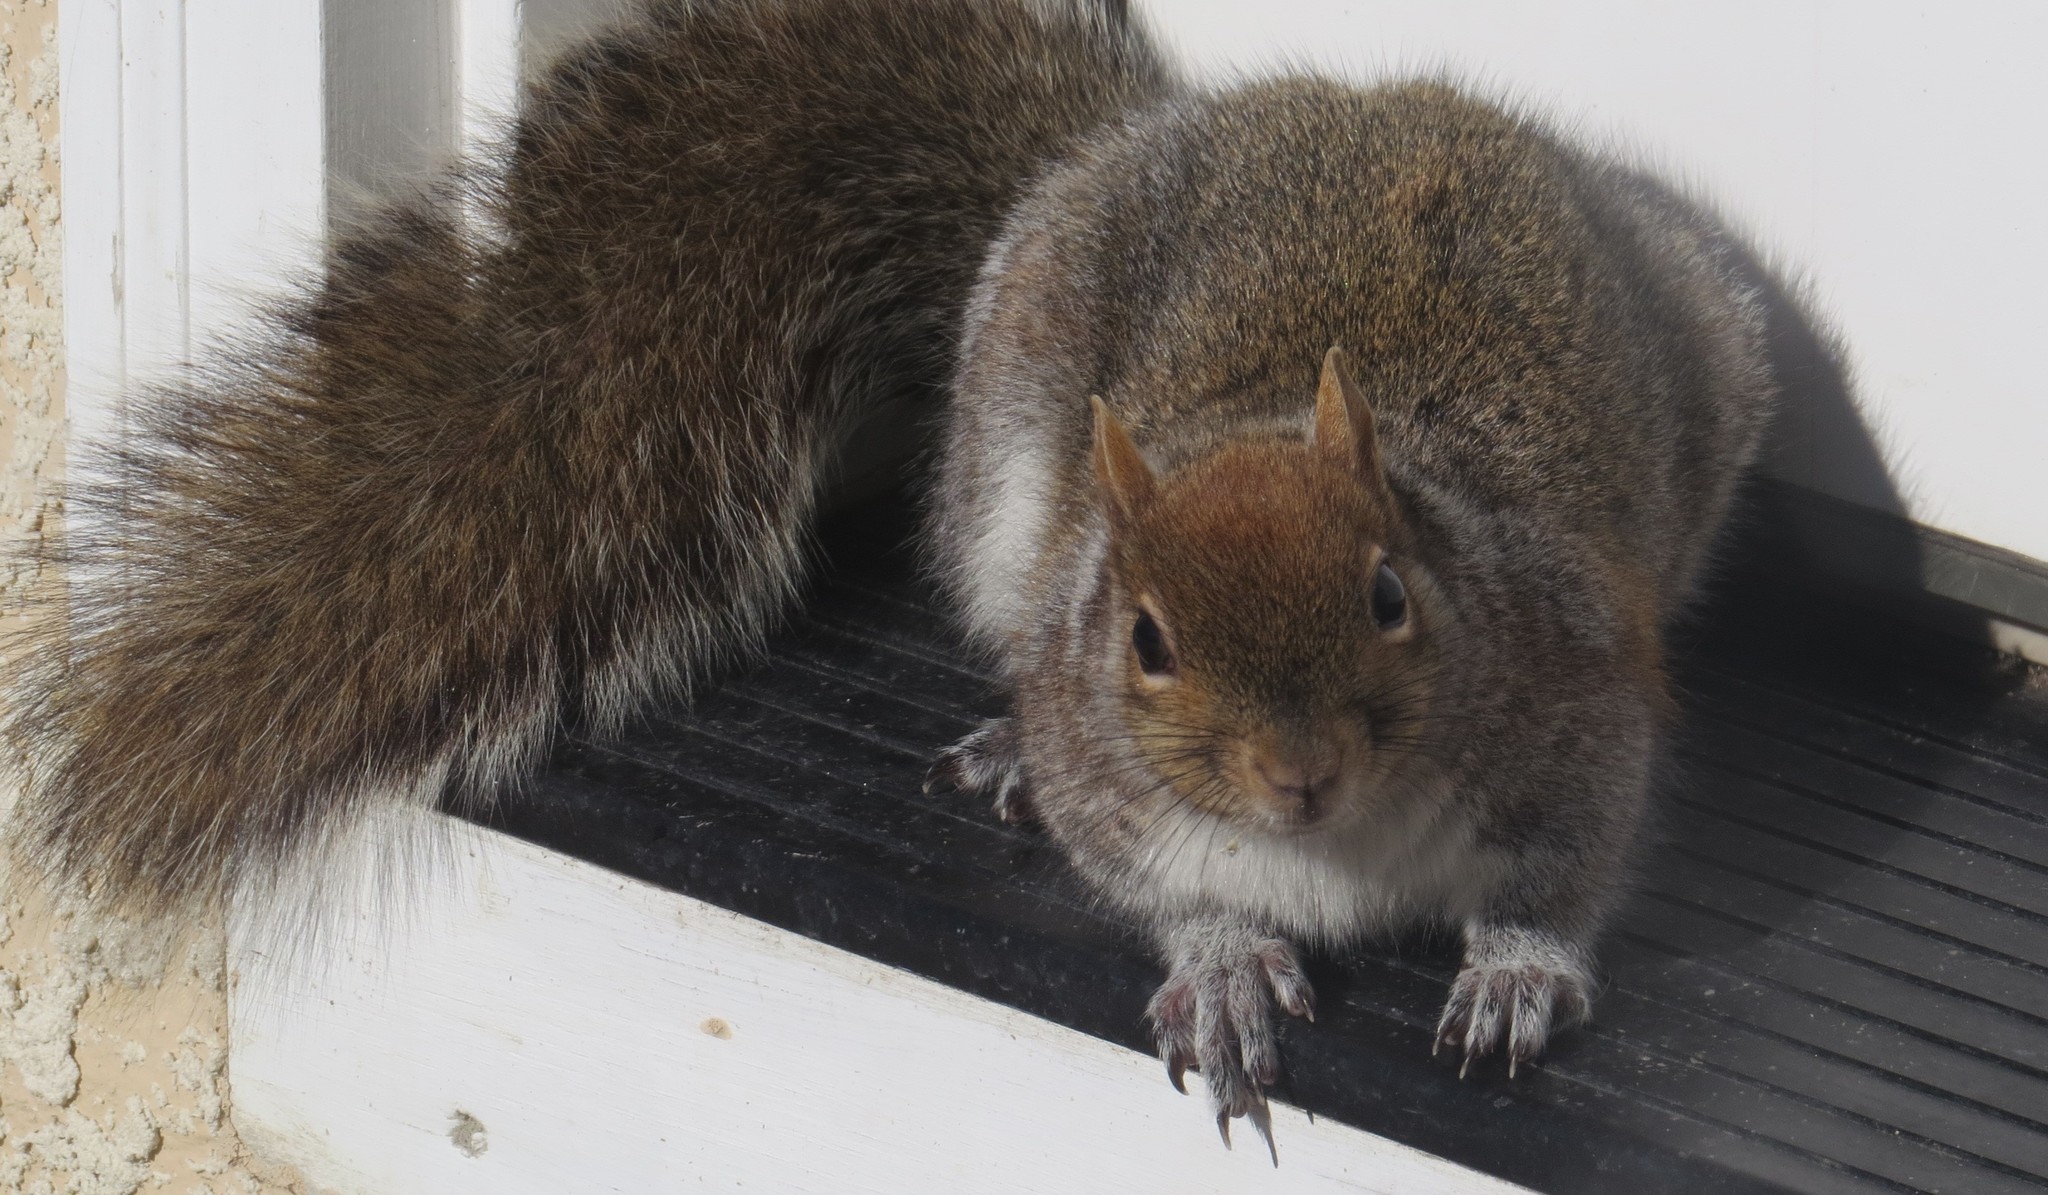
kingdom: Animalia
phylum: Chordata
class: Mammalia
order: Rodentia
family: Sciuridae
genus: Sciurus
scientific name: Sciurus carolinensis
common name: Eastern gray squirrel
